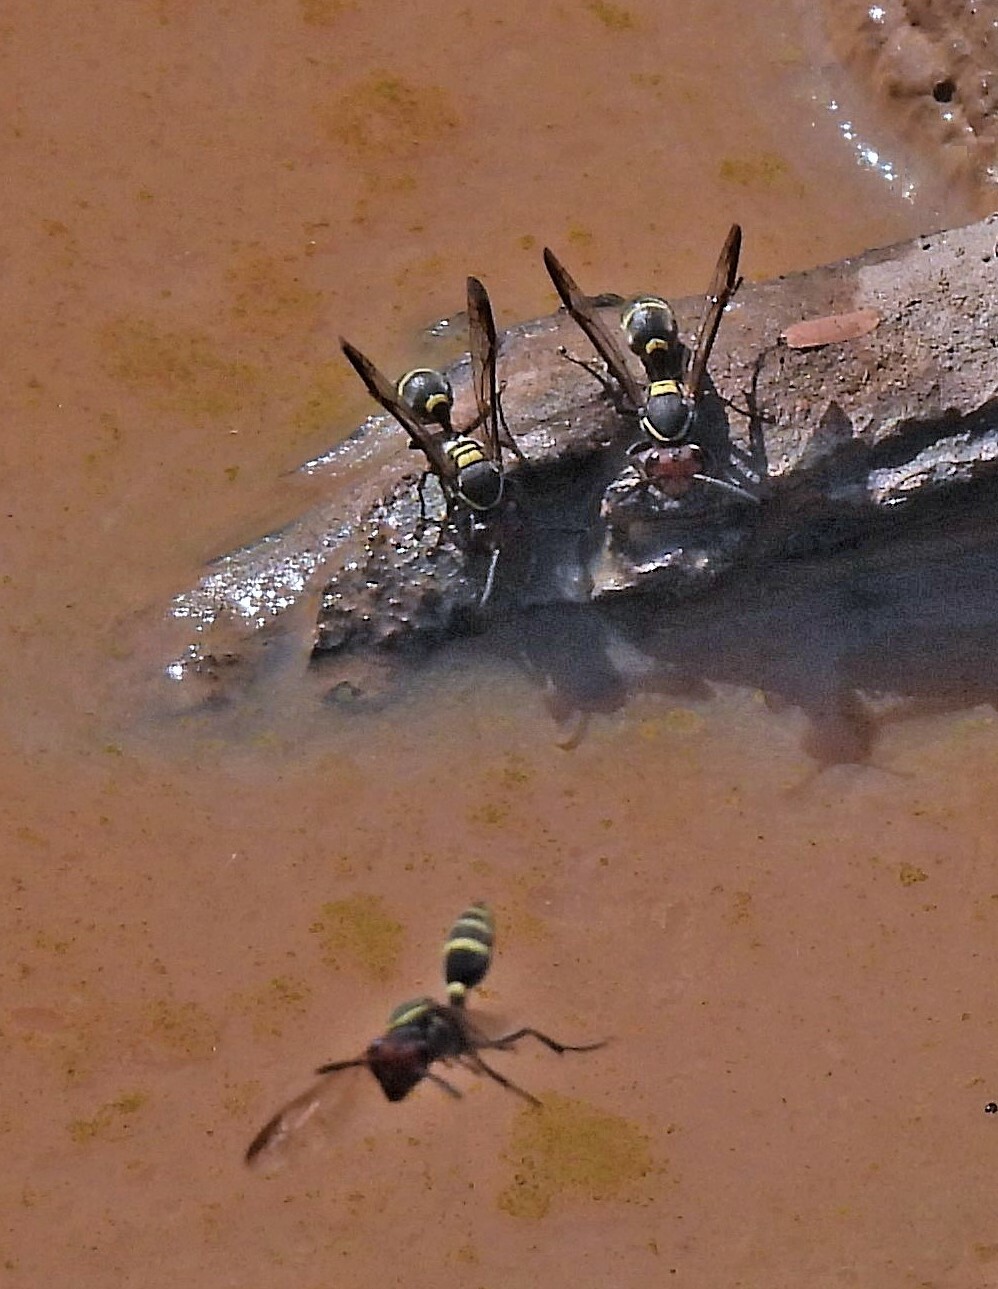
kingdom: Animalia
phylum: Arthropoda
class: Insecta
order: Hymenoptera
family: Eumenidae
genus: Polybia
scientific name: Polybia ruficeps
